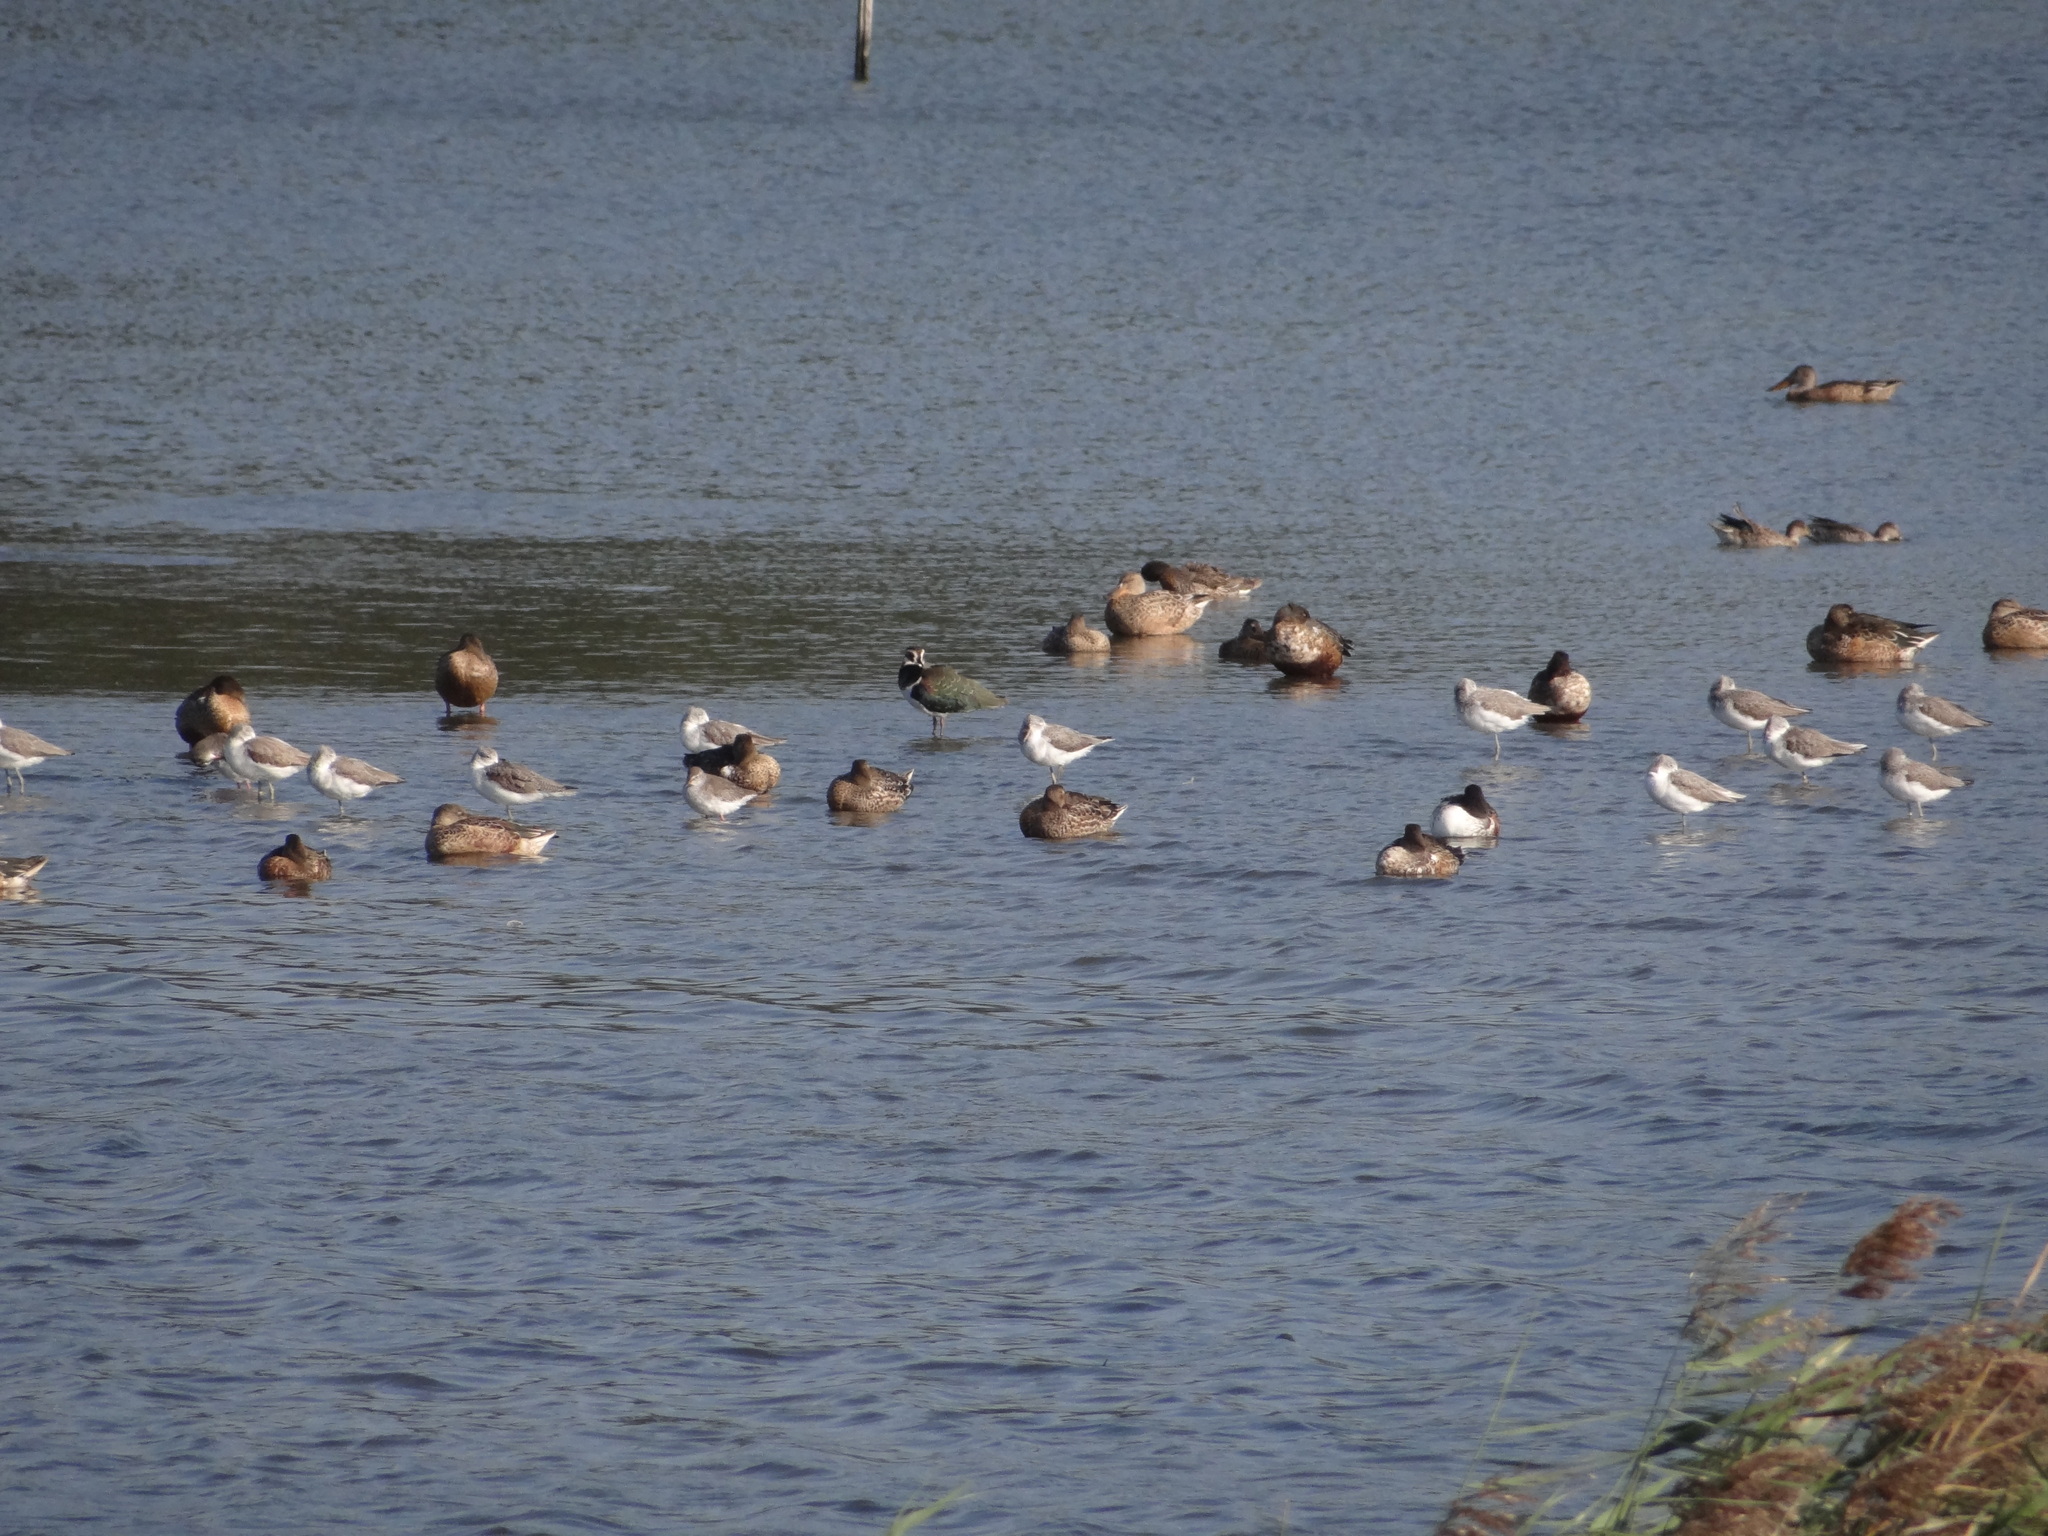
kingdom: Animalia
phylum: Chordata
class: Aves
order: Charadriiformes
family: Charadriidae
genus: Vanellus
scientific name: Vanellus vanellus
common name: Northern lapwing
